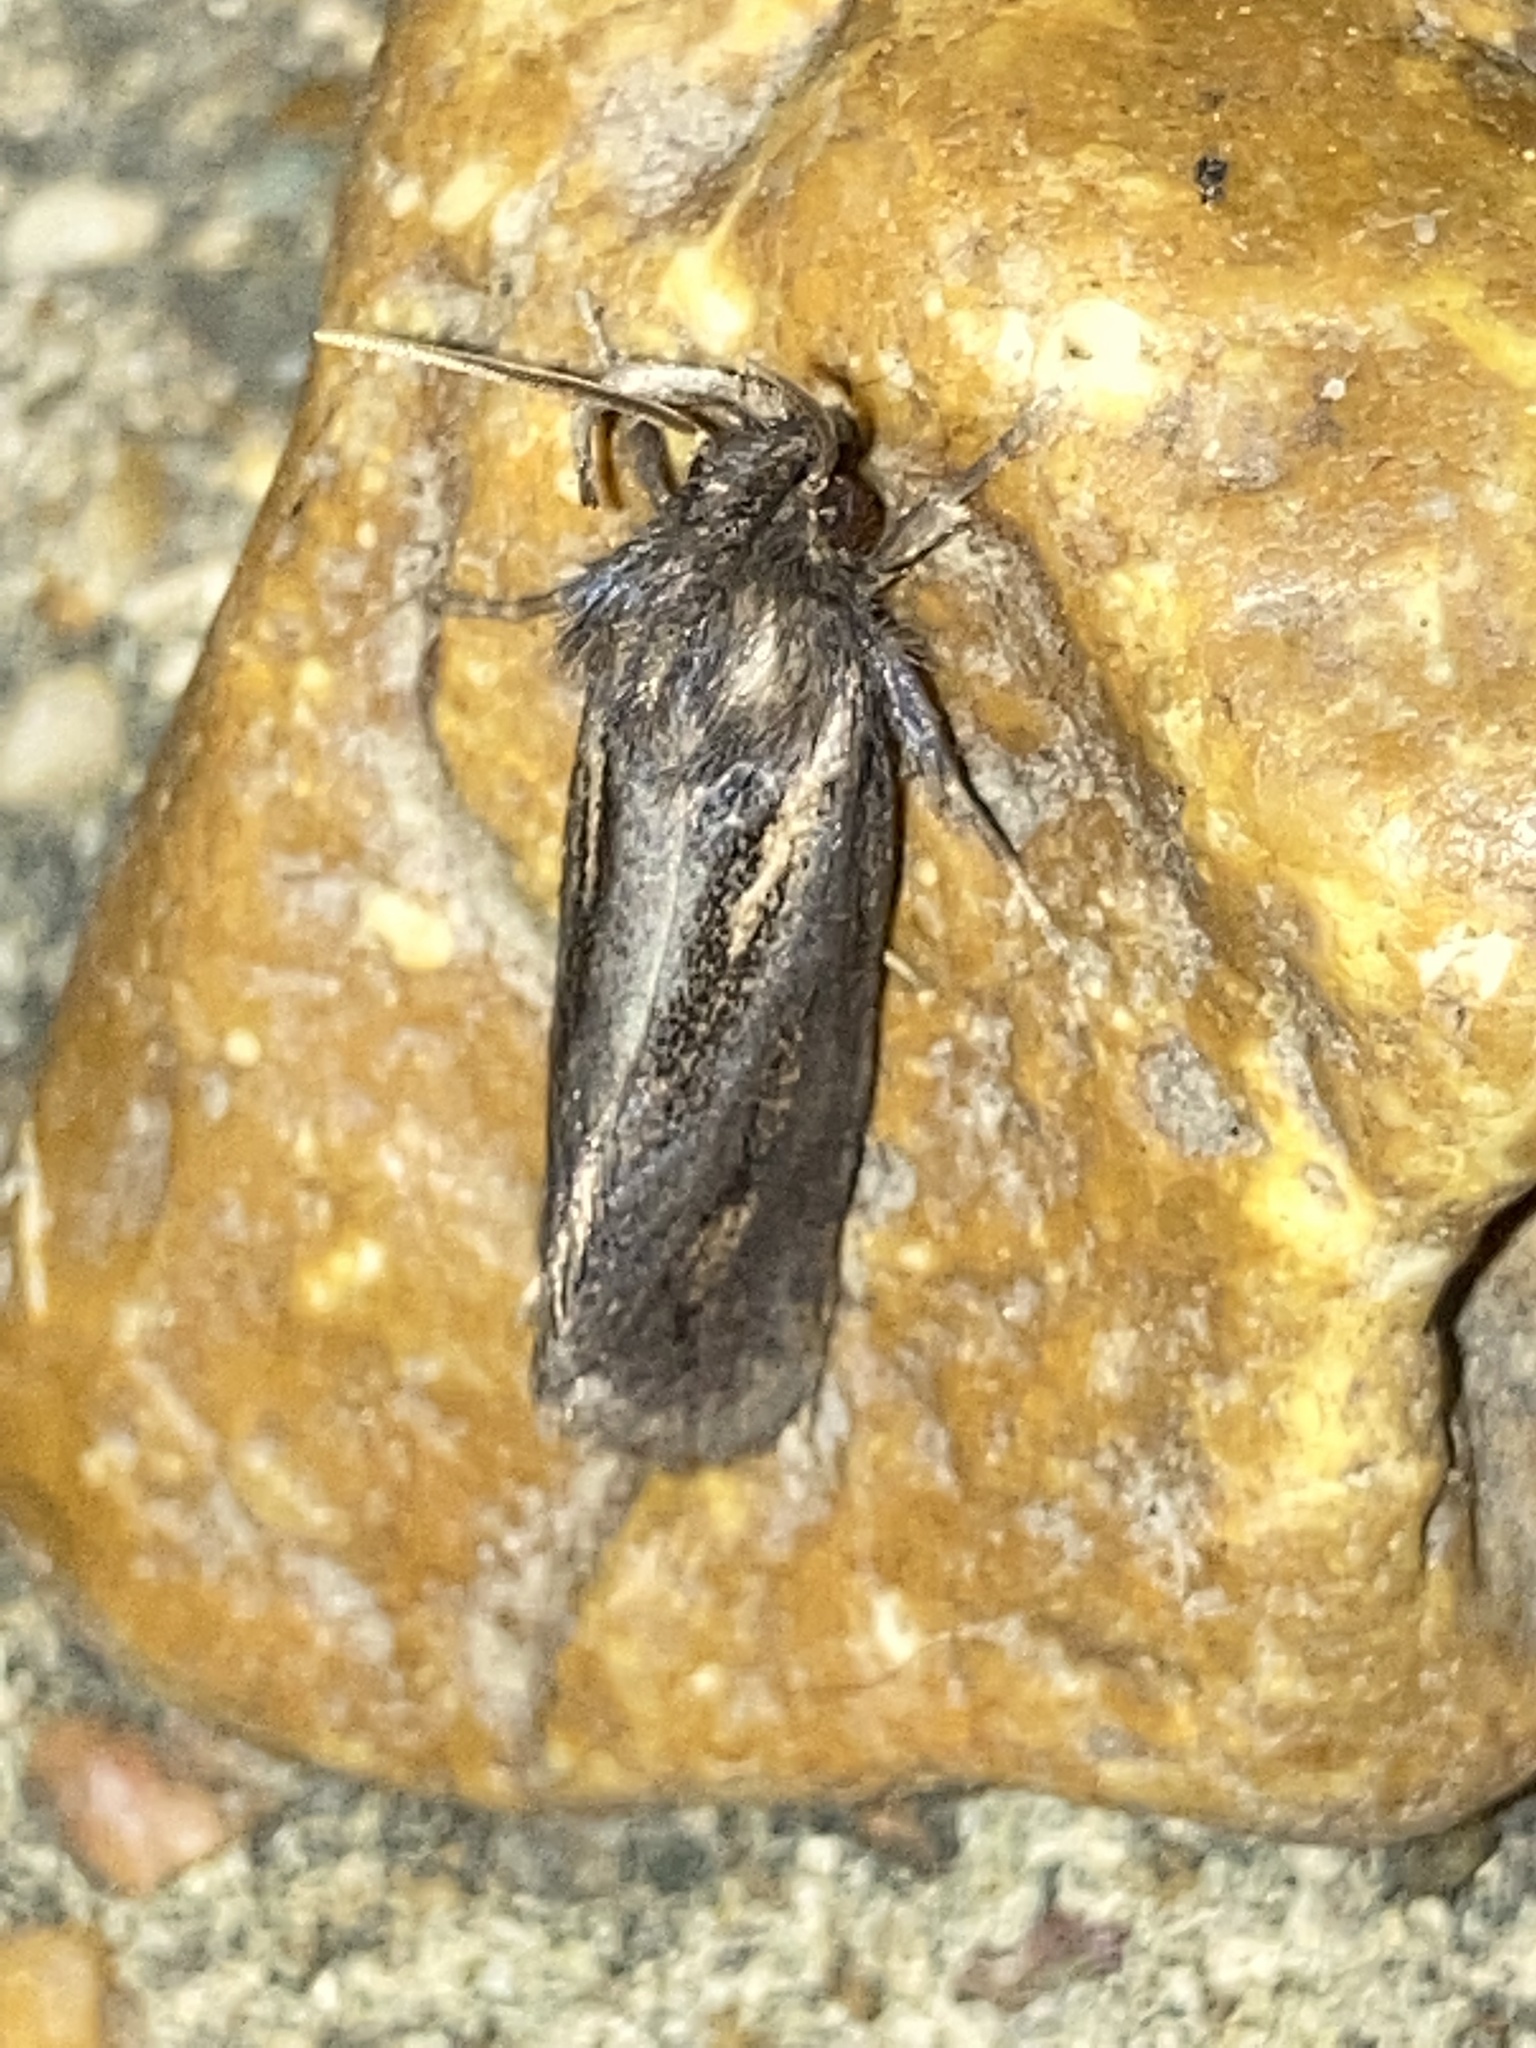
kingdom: Animalia
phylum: Arthropoda
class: Insecta
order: Lepidoptera
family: Tineidae
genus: Acrolophus
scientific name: Acrolophus popeanella
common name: Clemens' grass tubeworm moth
